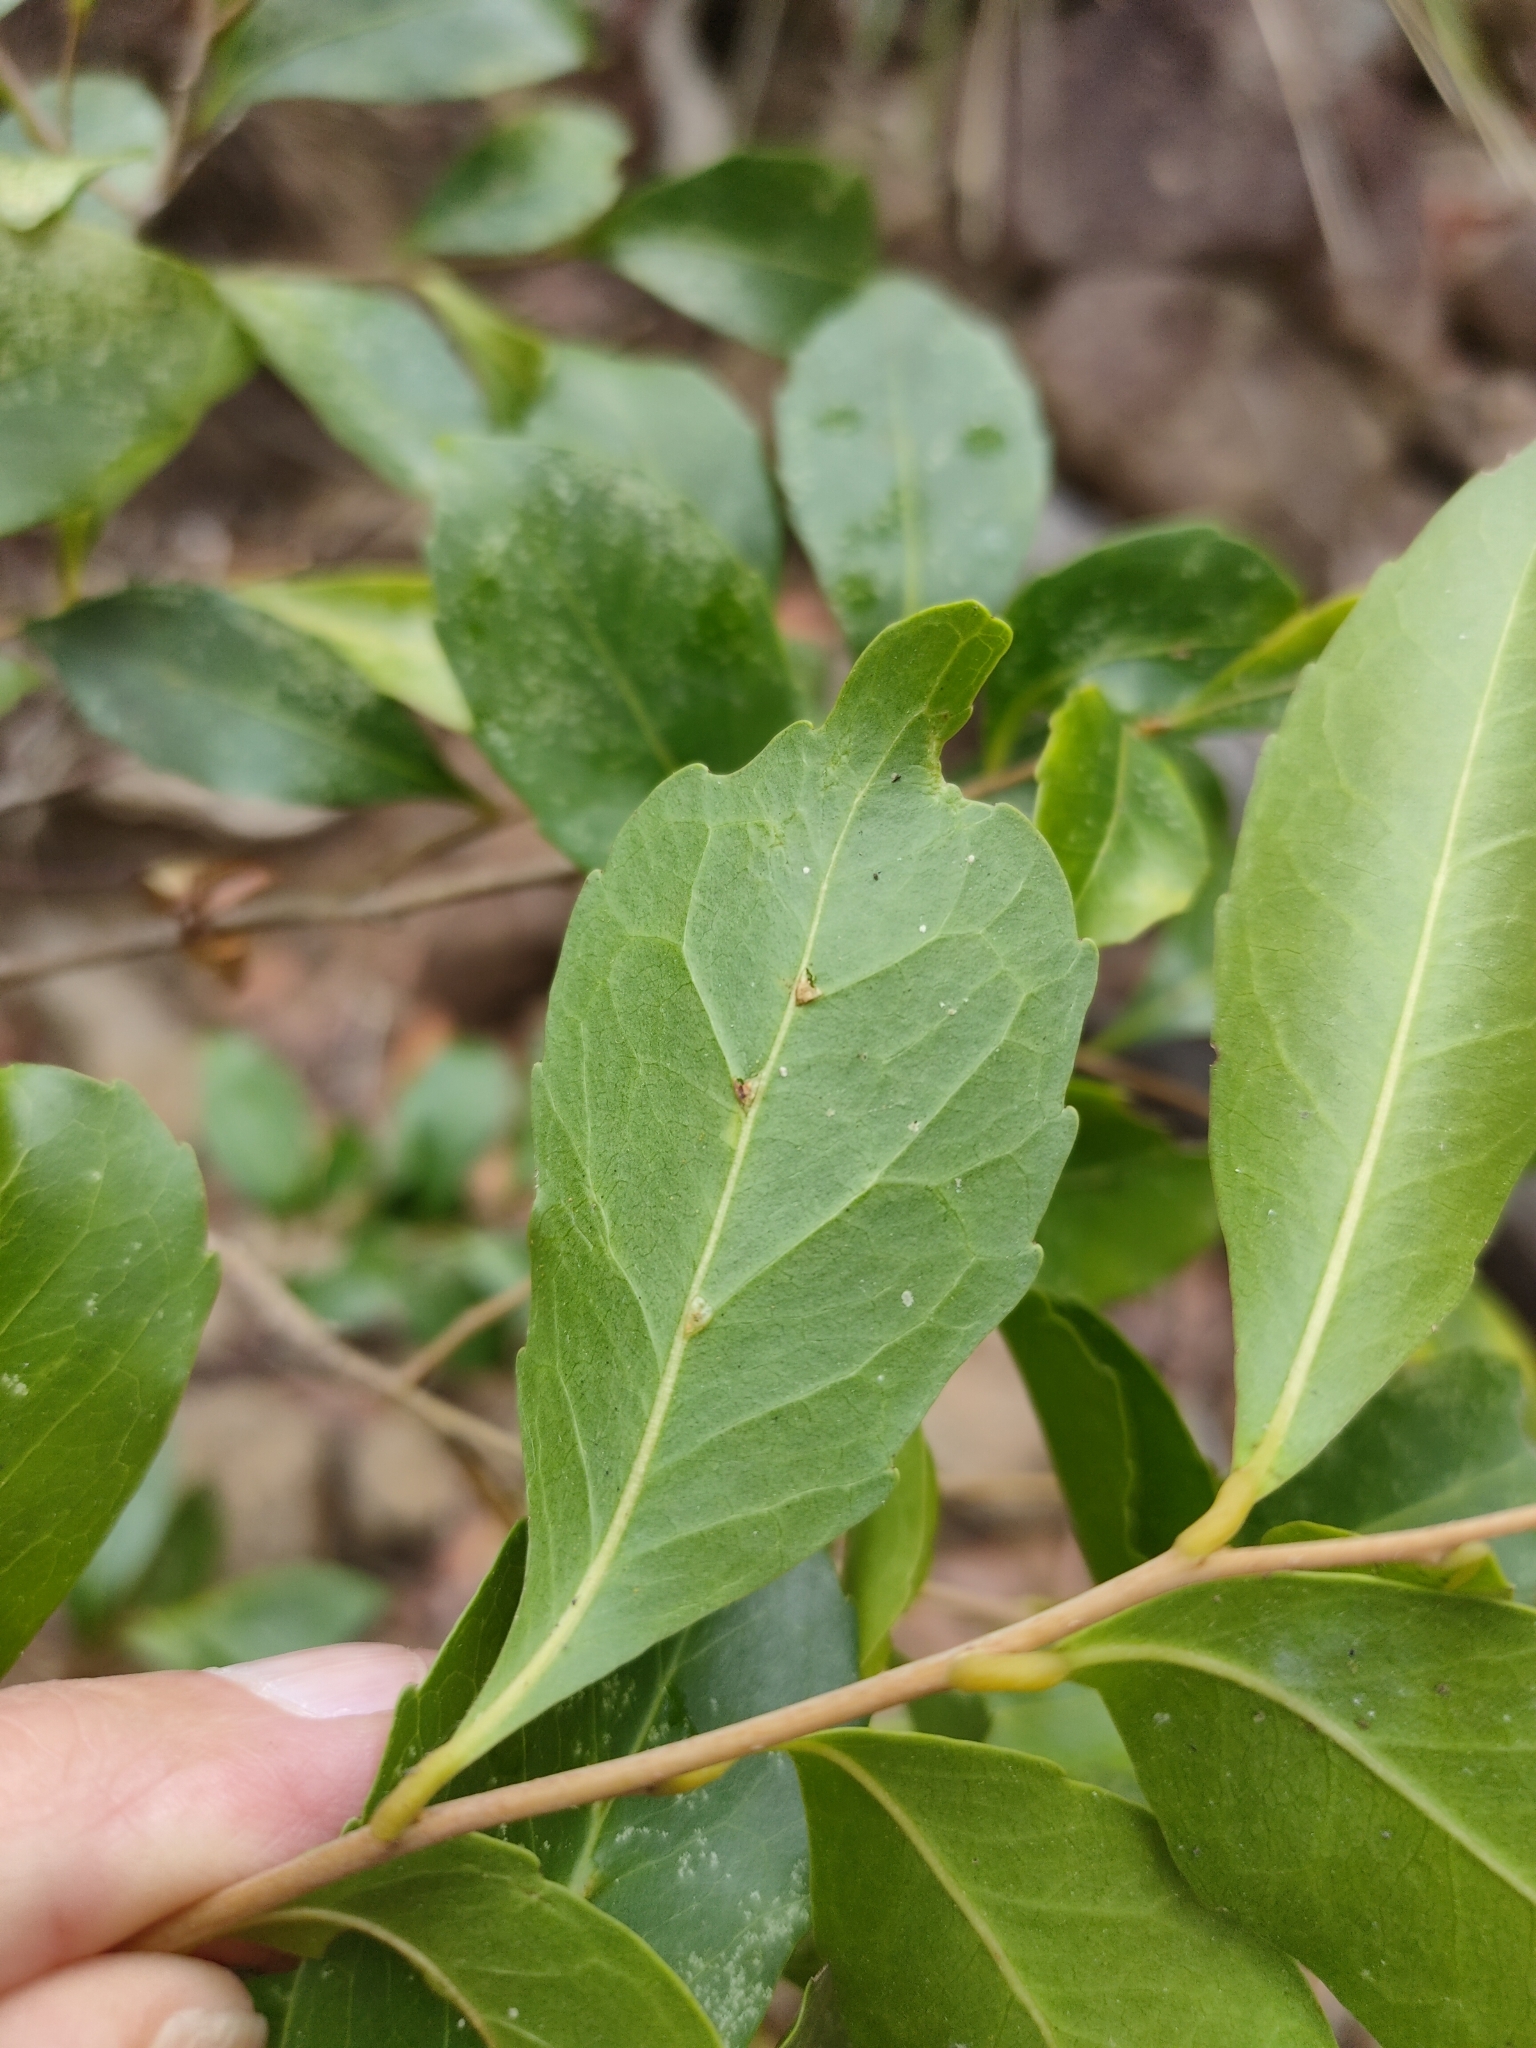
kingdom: Plantae
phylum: Tracheophyta
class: Magnoliopsida
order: Oxalidales
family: Elaeocarpaceae
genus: Elaeocarpus
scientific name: Elaeocarpus obovatus
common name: Freckled oliveberry
